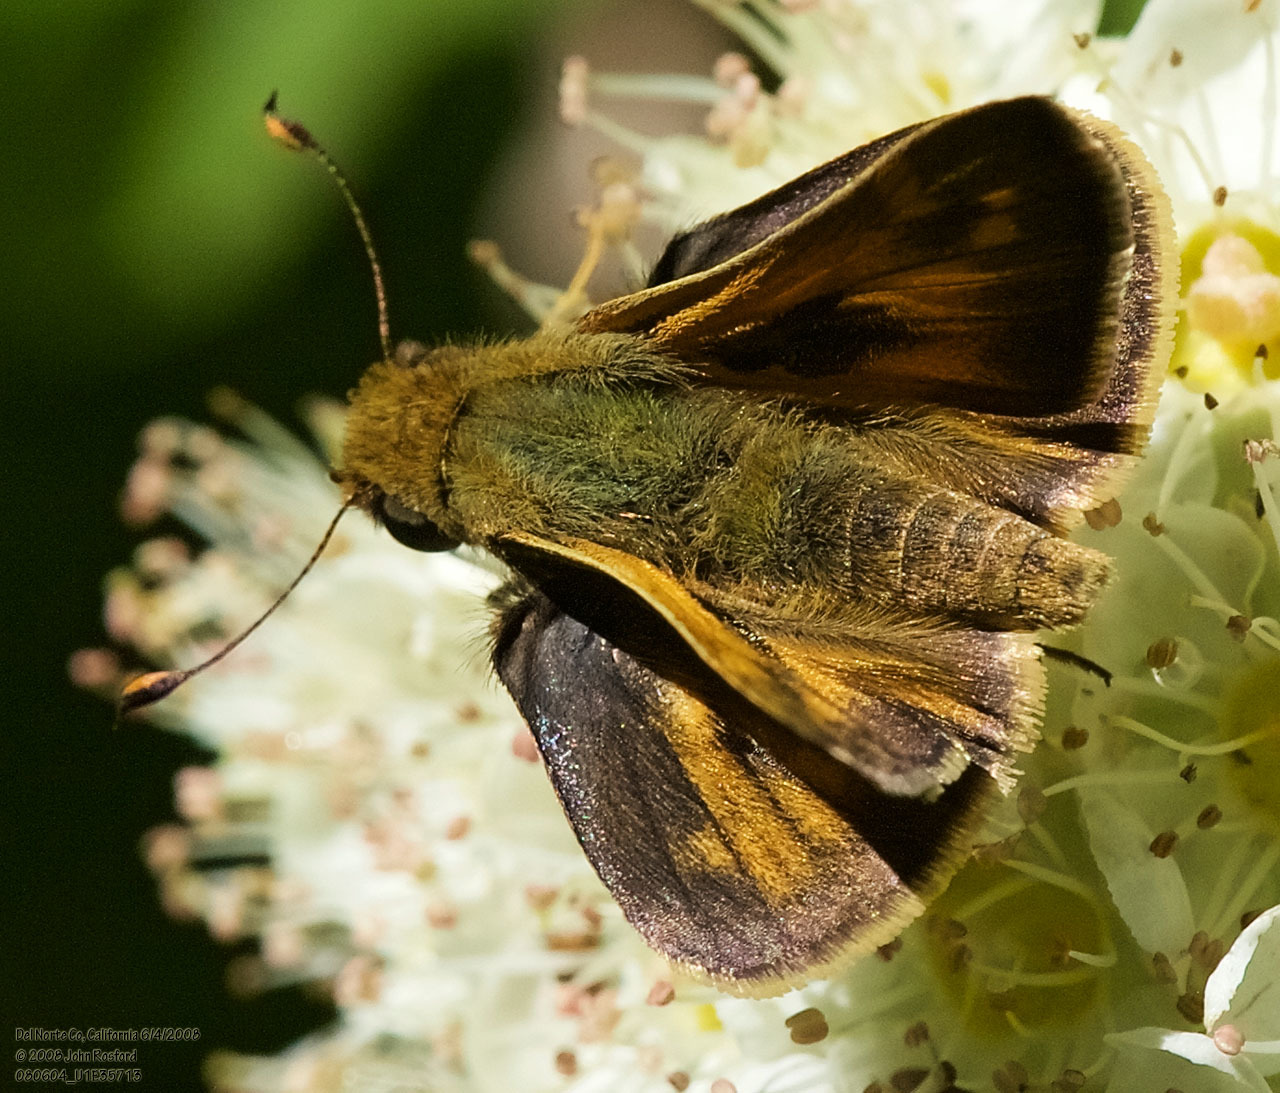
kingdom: Animalia
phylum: Arthropoda
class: Insecta
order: Lepidoptera
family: Hesperiidae
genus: Atalopedes
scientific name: Atalopedes campestris
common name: Sachem
